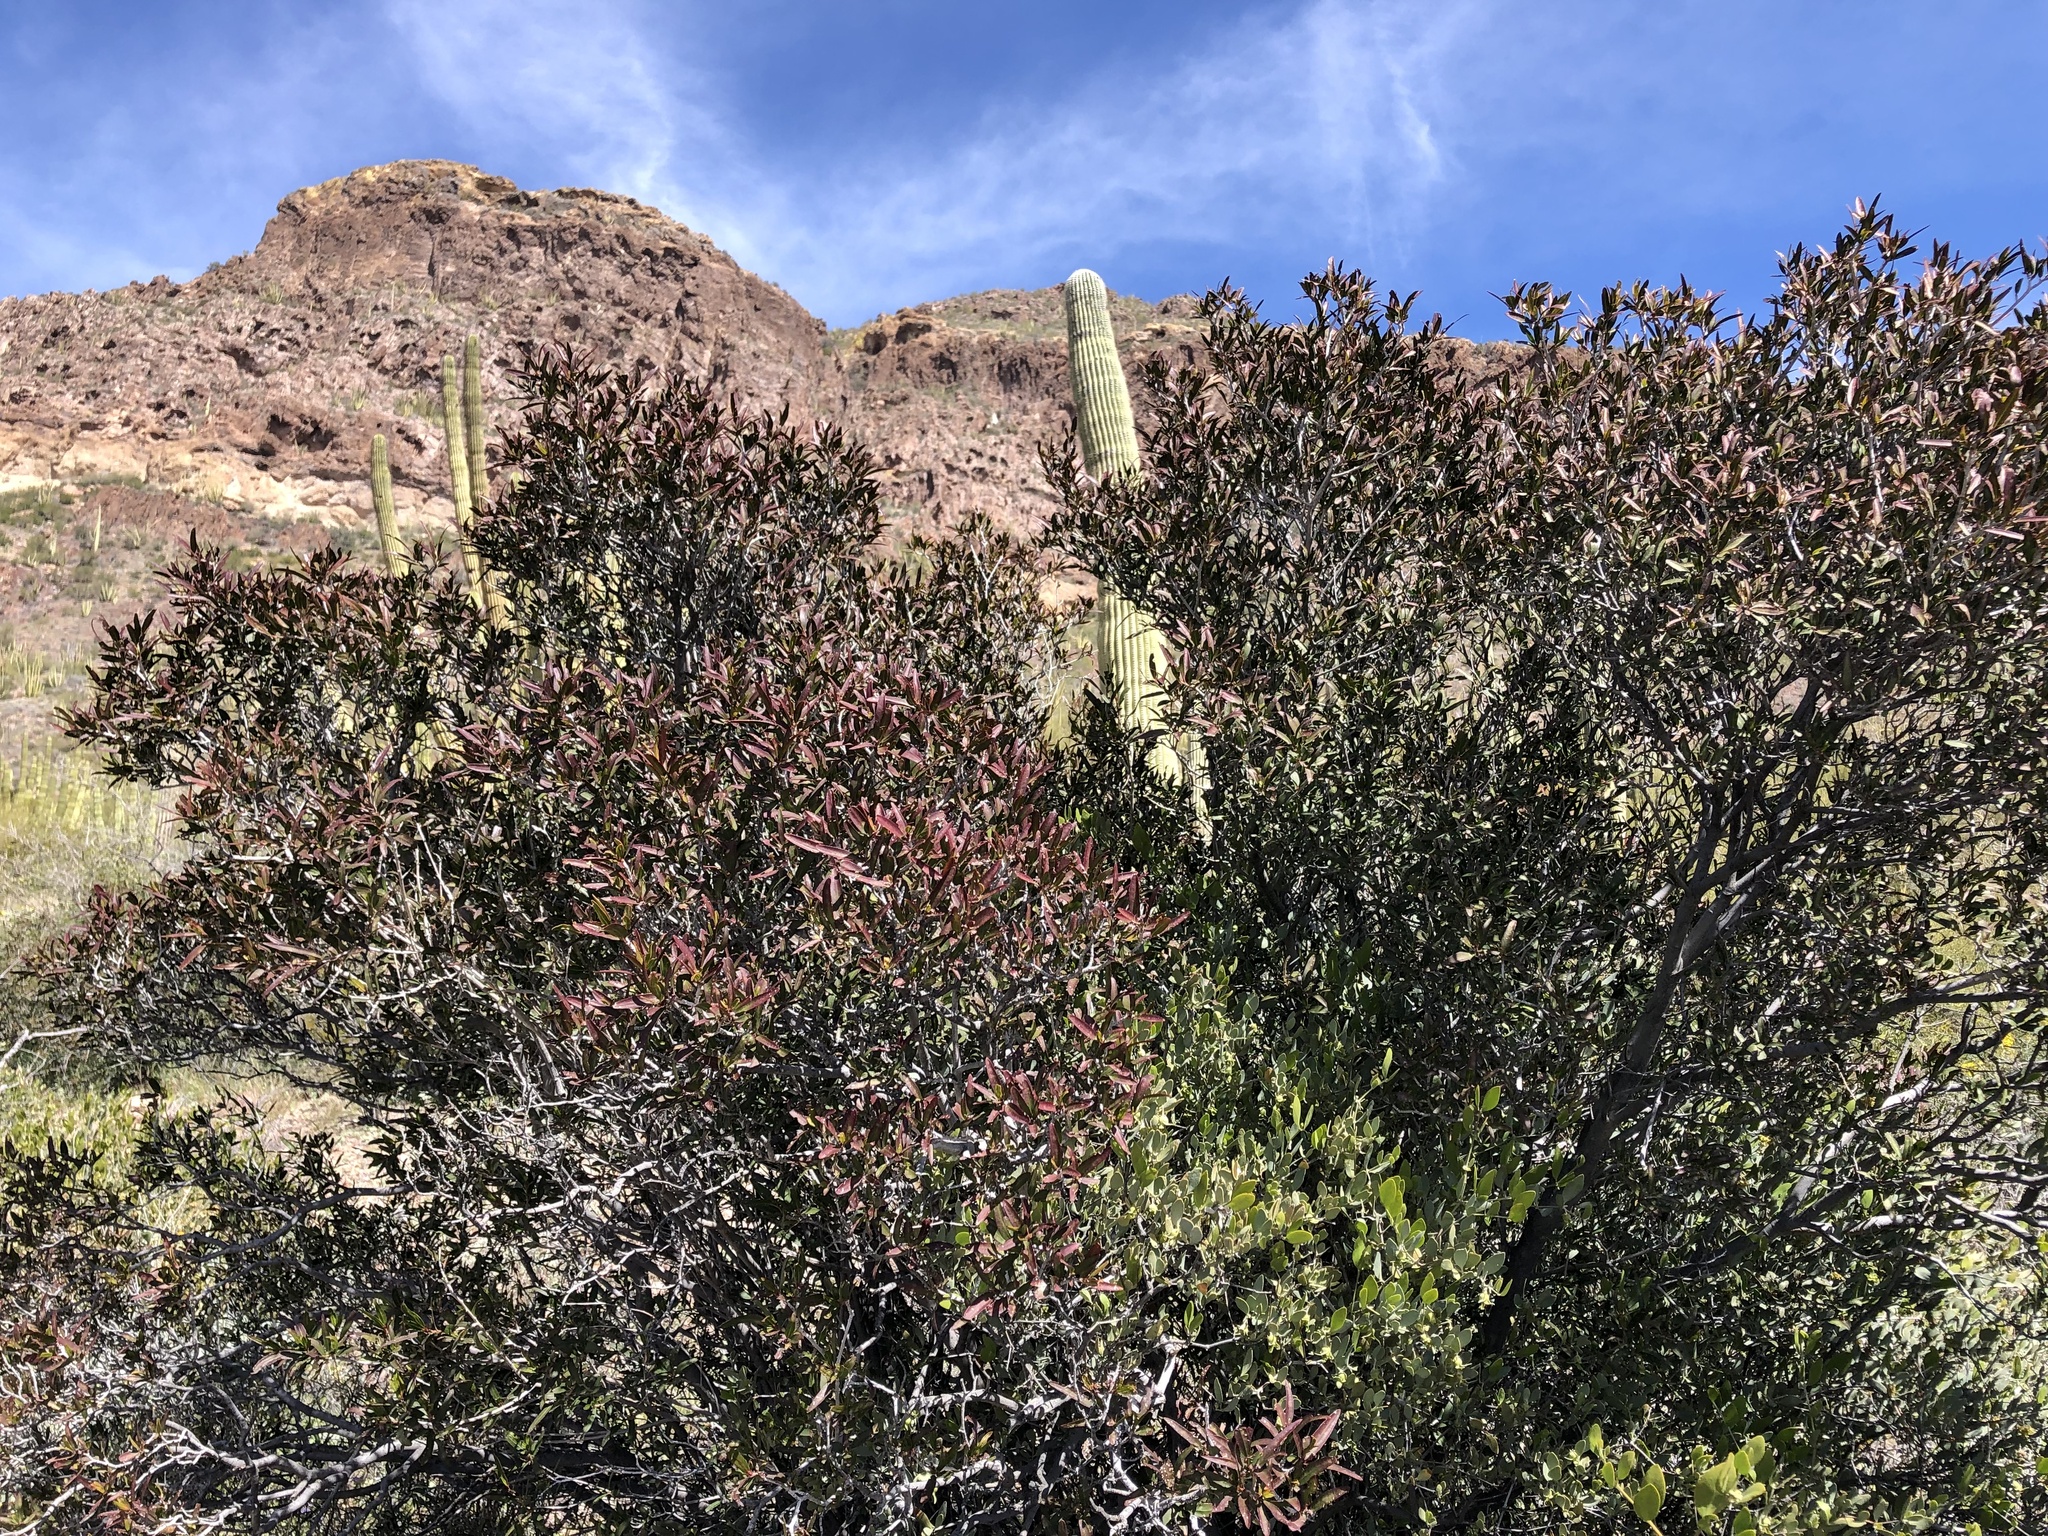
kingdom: Plantae
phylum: Tracheophyta
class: Magnoliopsida
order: Malpighiales
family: Euphorbiaceae
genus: Pleradenophora
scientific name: Pleradenophora bilocularis
